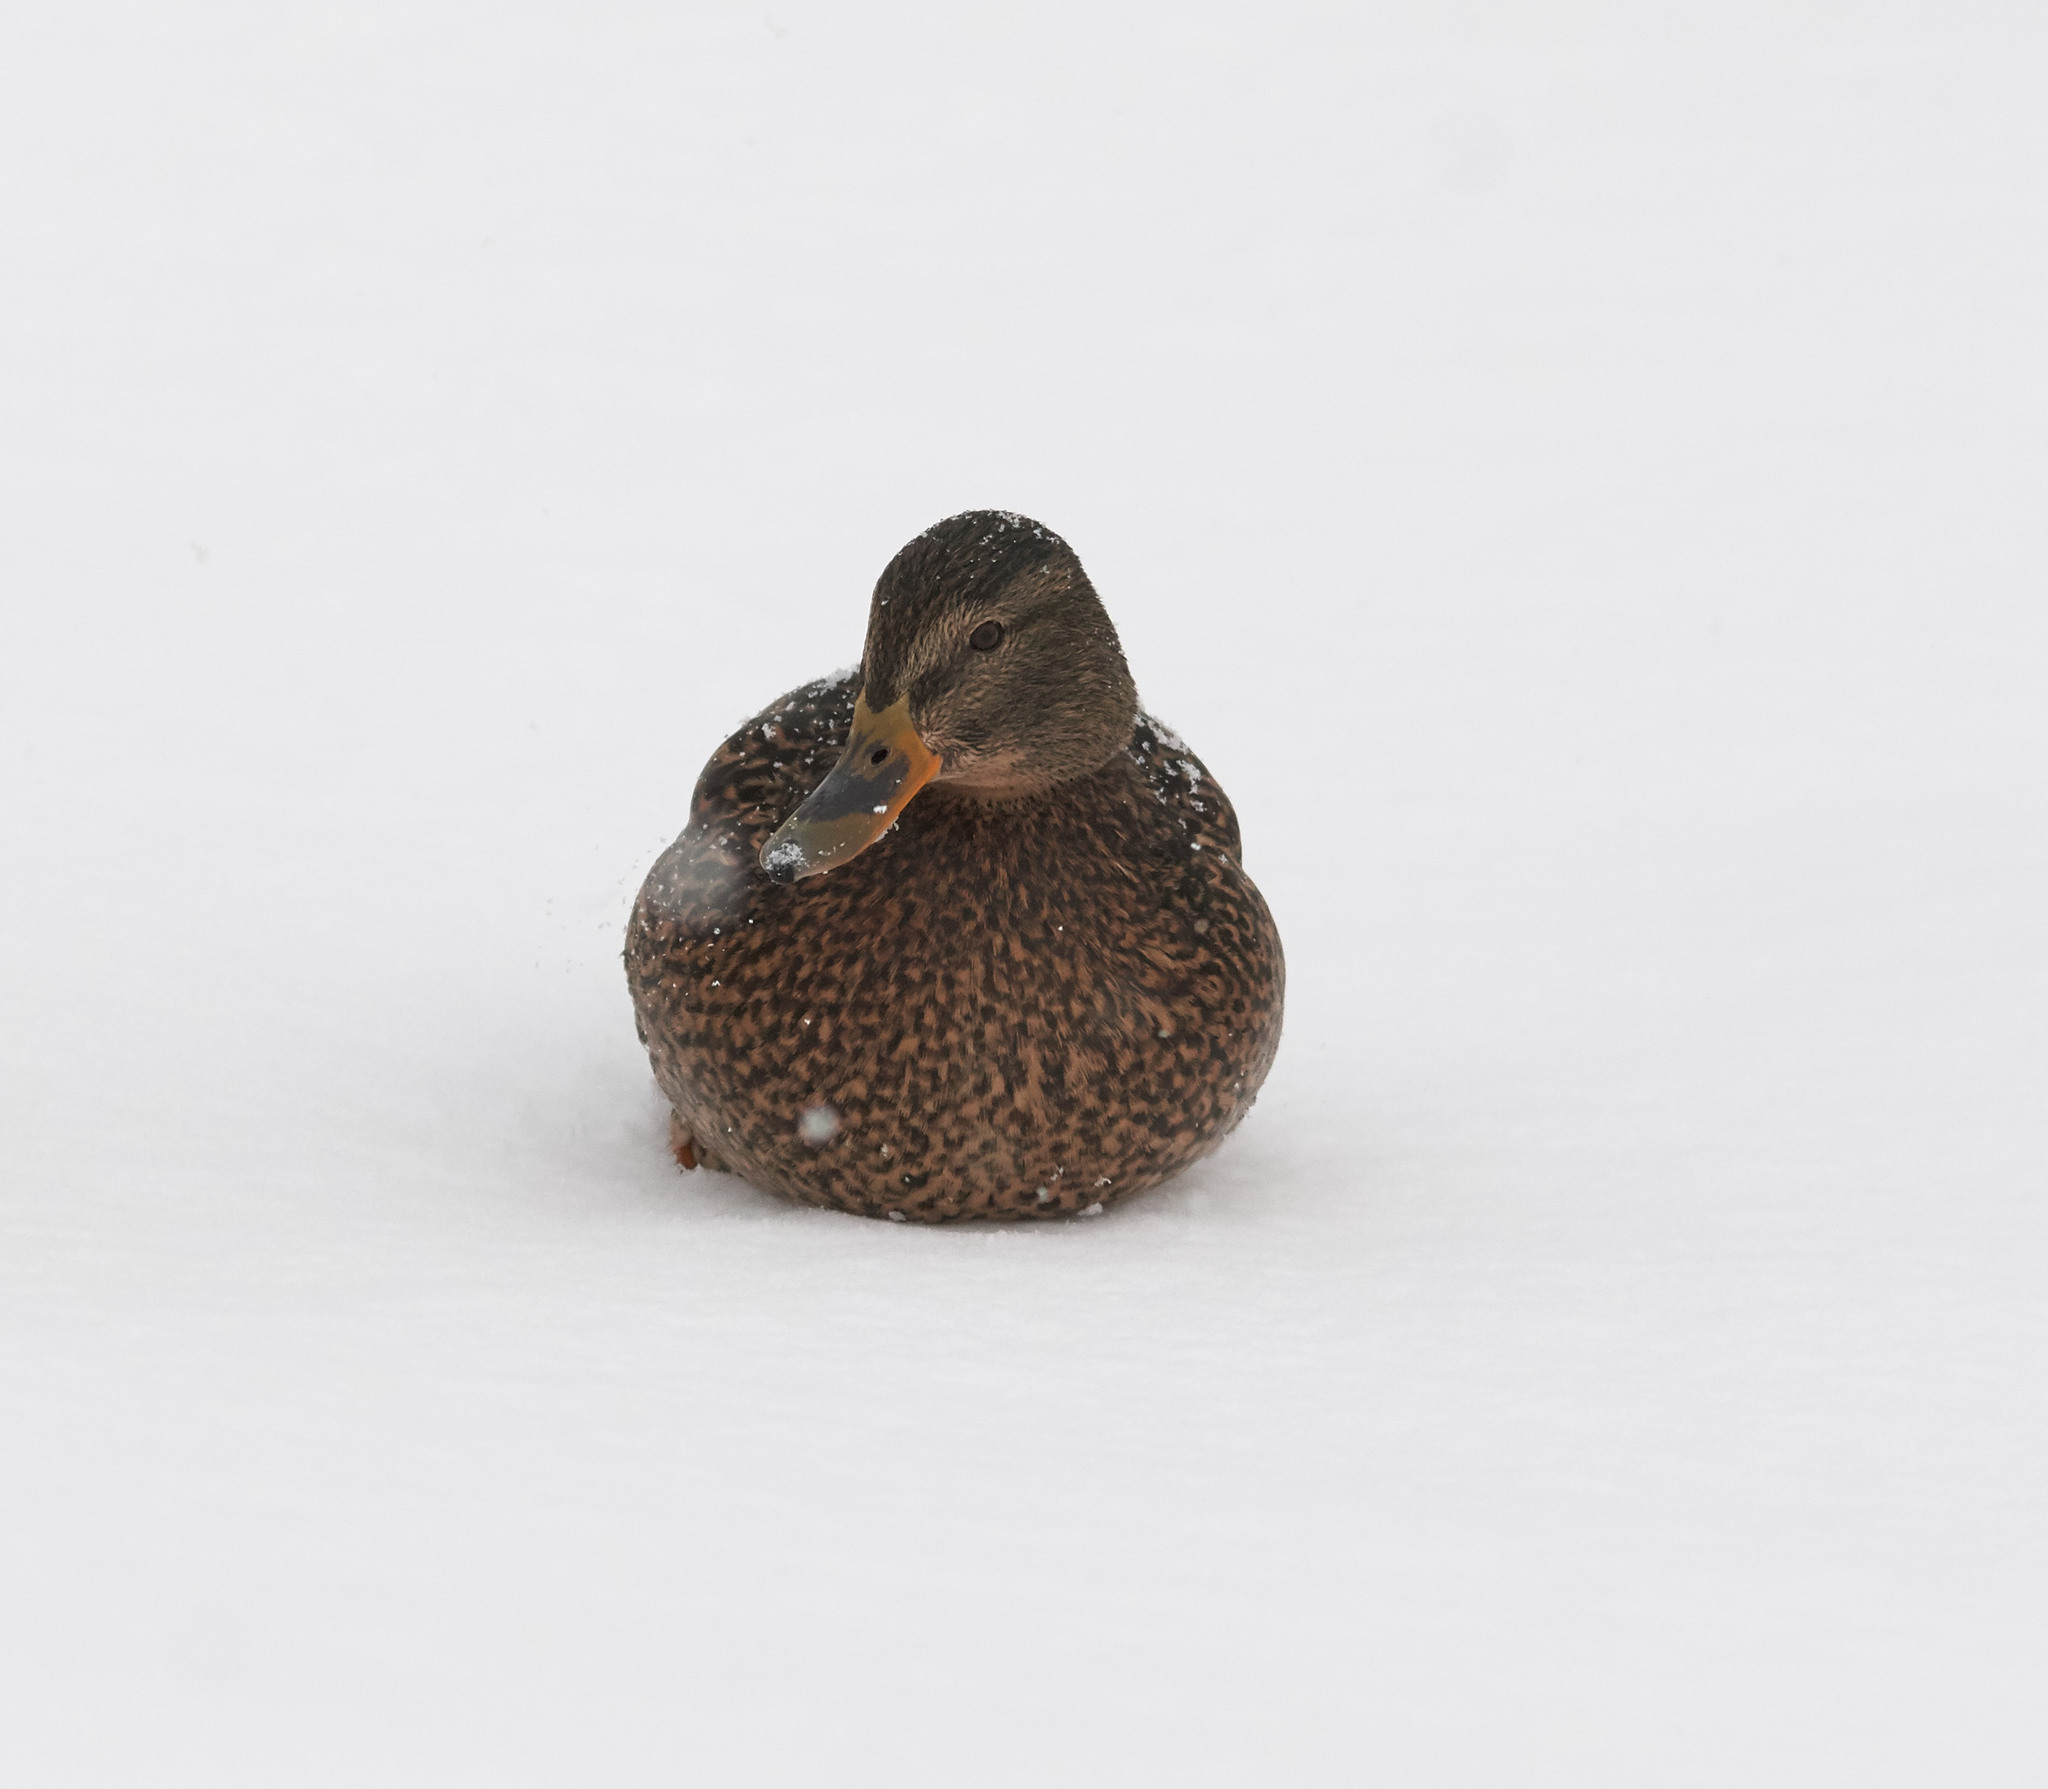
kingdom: Animalia
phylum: Chordata
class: Aves
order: Anseriformes
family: Anatidae
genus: Anas
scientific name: Anas platyrhynchos
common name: Mallard
